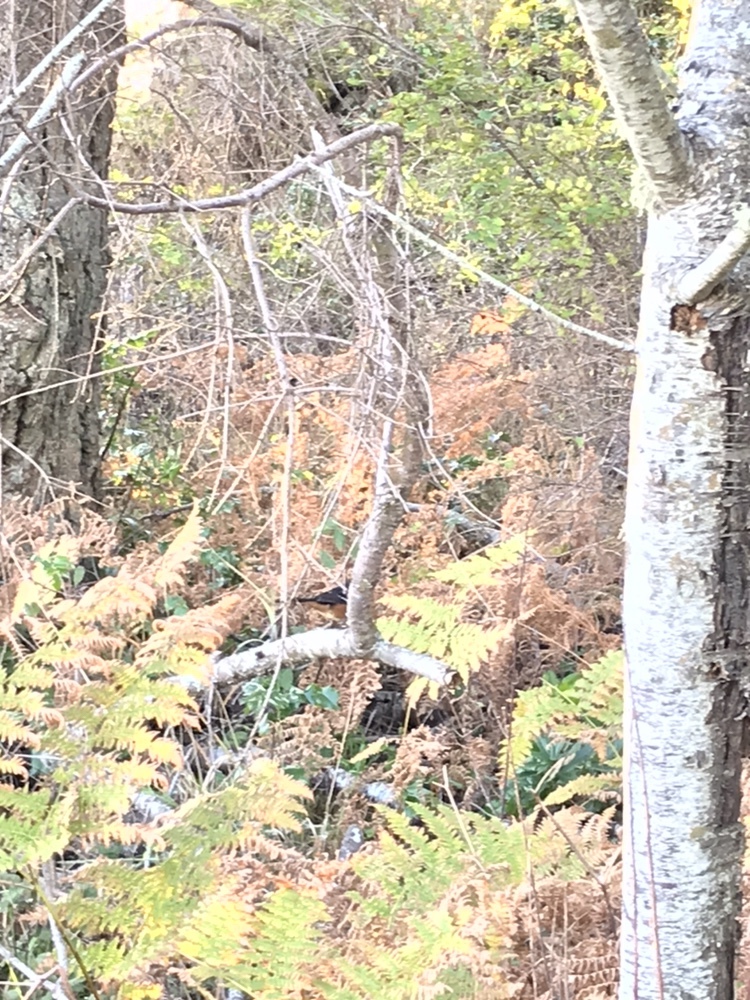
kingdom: Animalia
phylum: Chordata
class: Aves
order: Passeriformes
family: Passerellidae
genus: Pipilo
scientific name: Pipilo maculatus
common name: Spotted towhee
